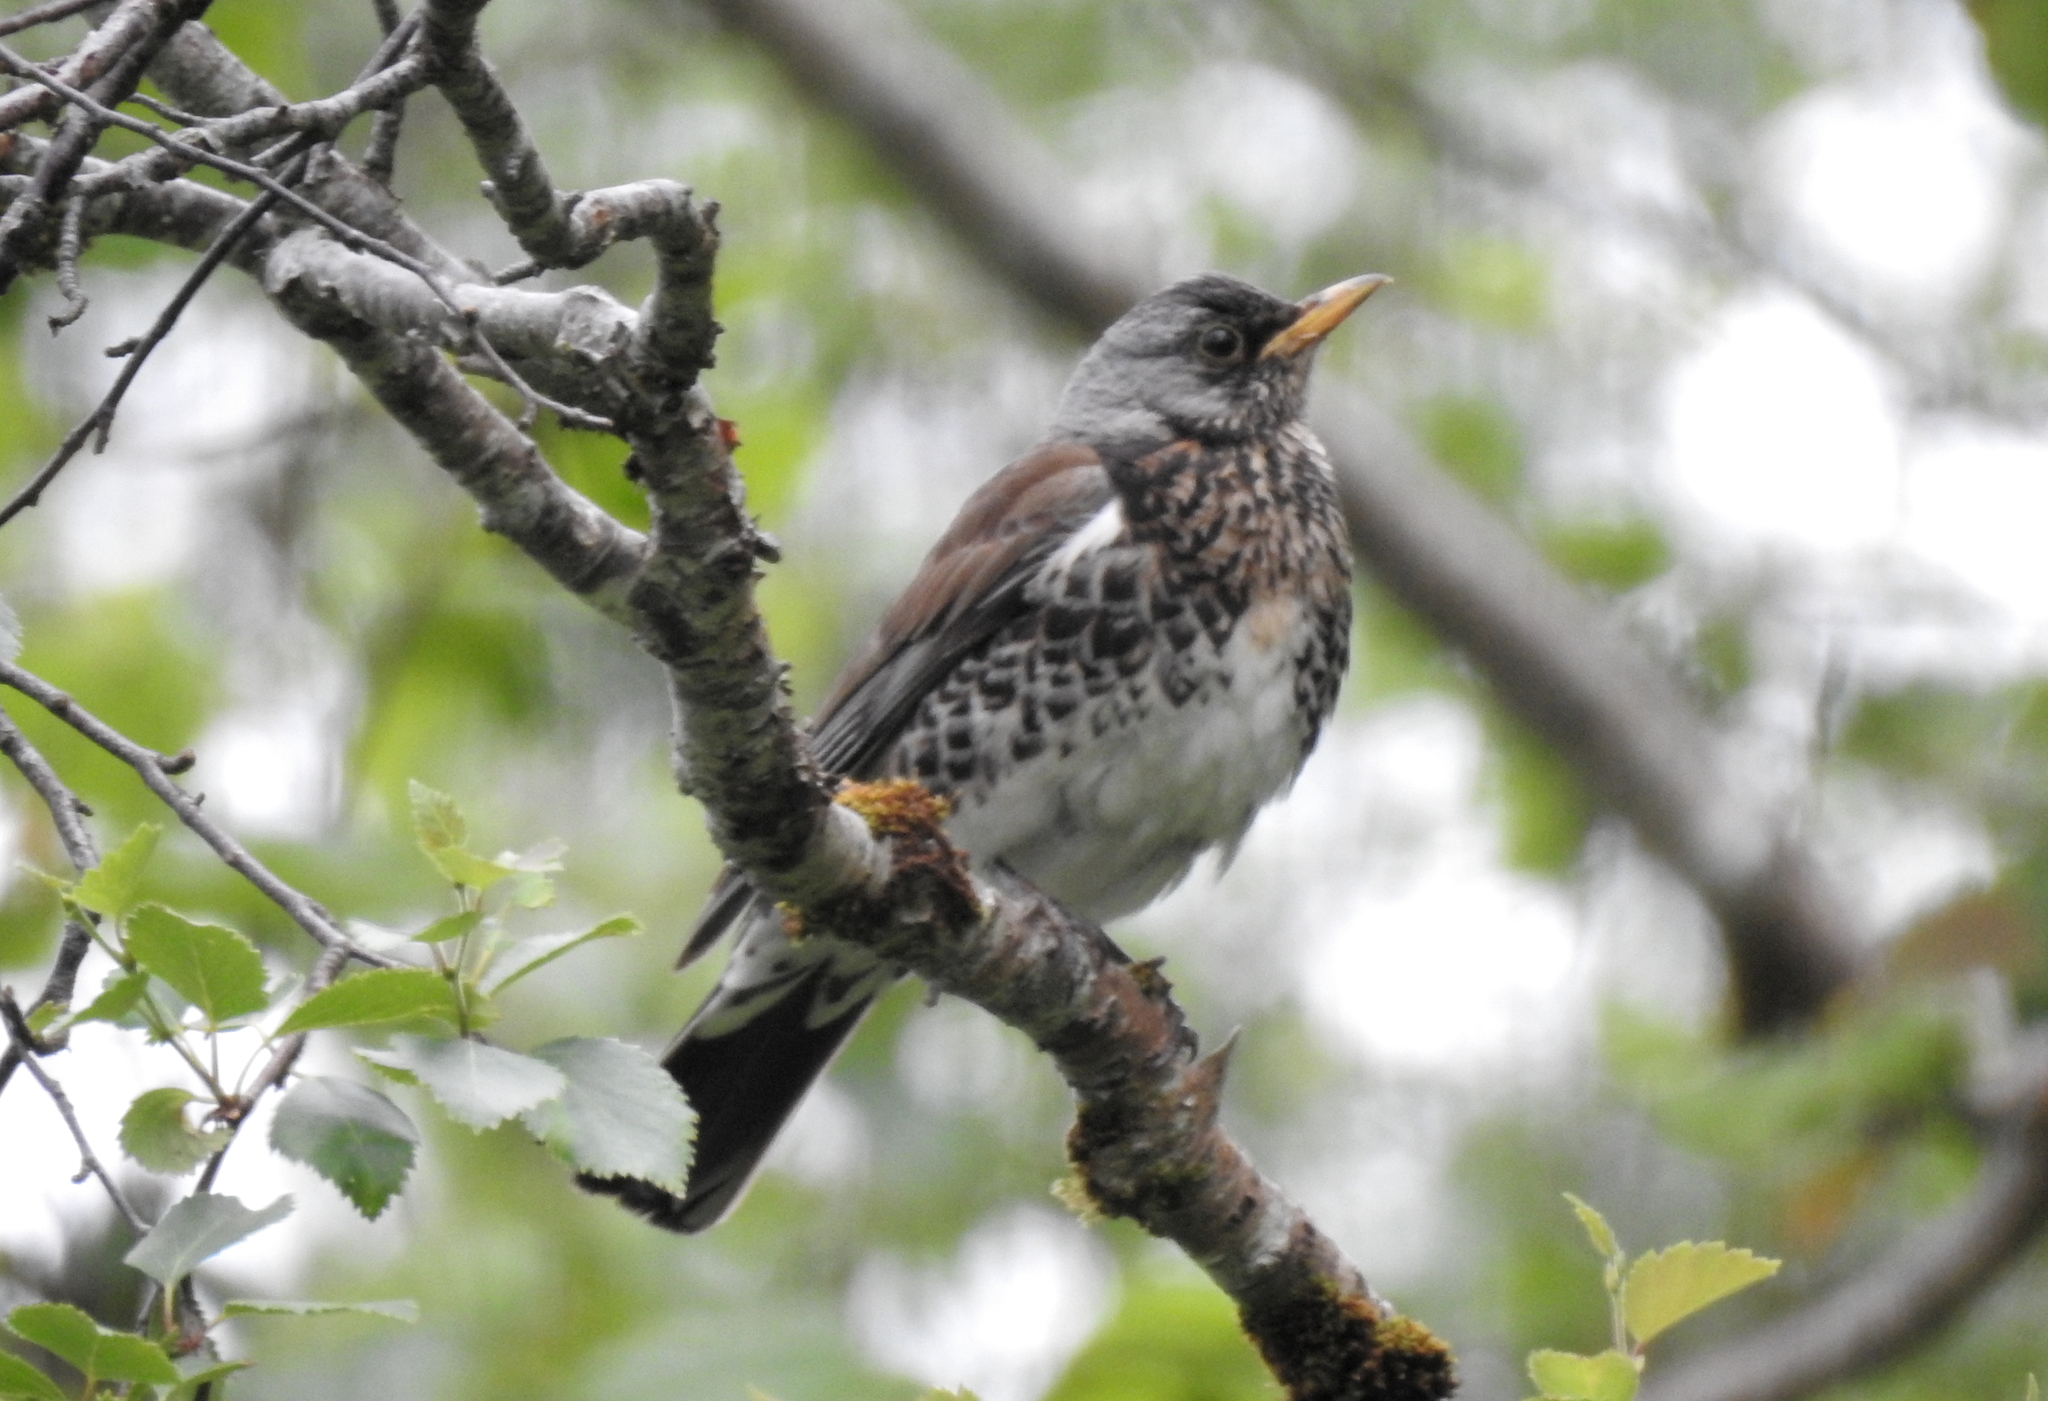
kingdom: Animalia
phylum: Chordata
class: Aves
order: Passeriformes
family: Turdidae
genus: Turdus
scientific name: Turdus pilaris
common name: Fieldfare
